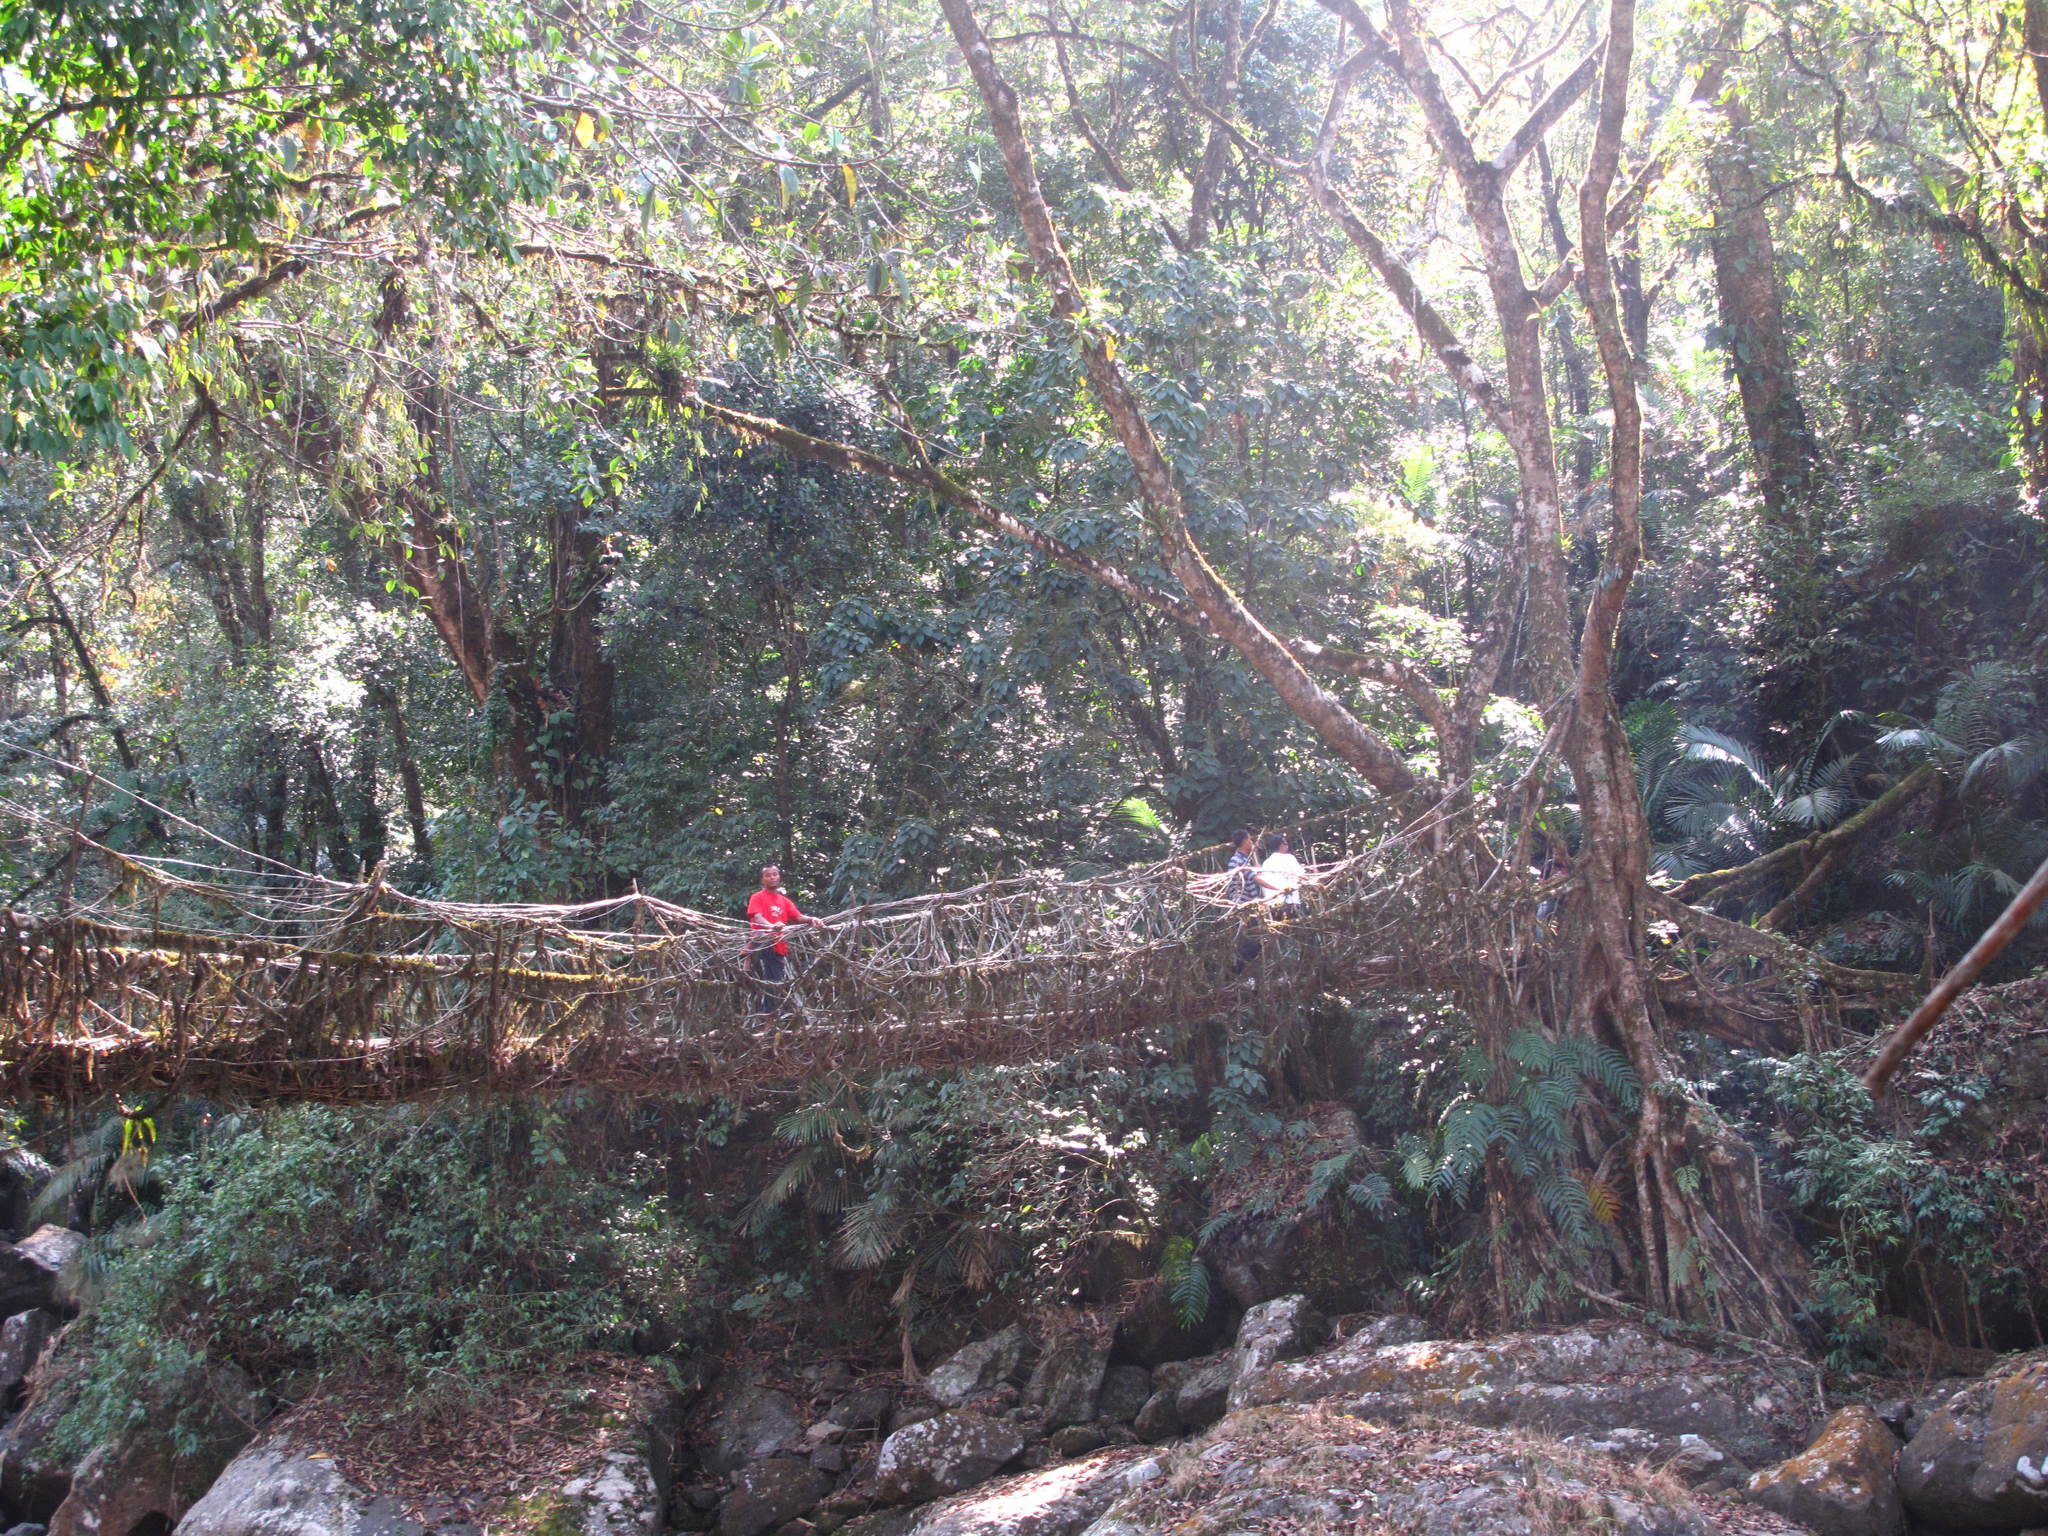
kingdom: Plantae
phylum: Tracheophyta
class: Magnoliopsida
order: Rosales
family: Moraceae
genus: Ficus
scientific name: Ficus elastica
